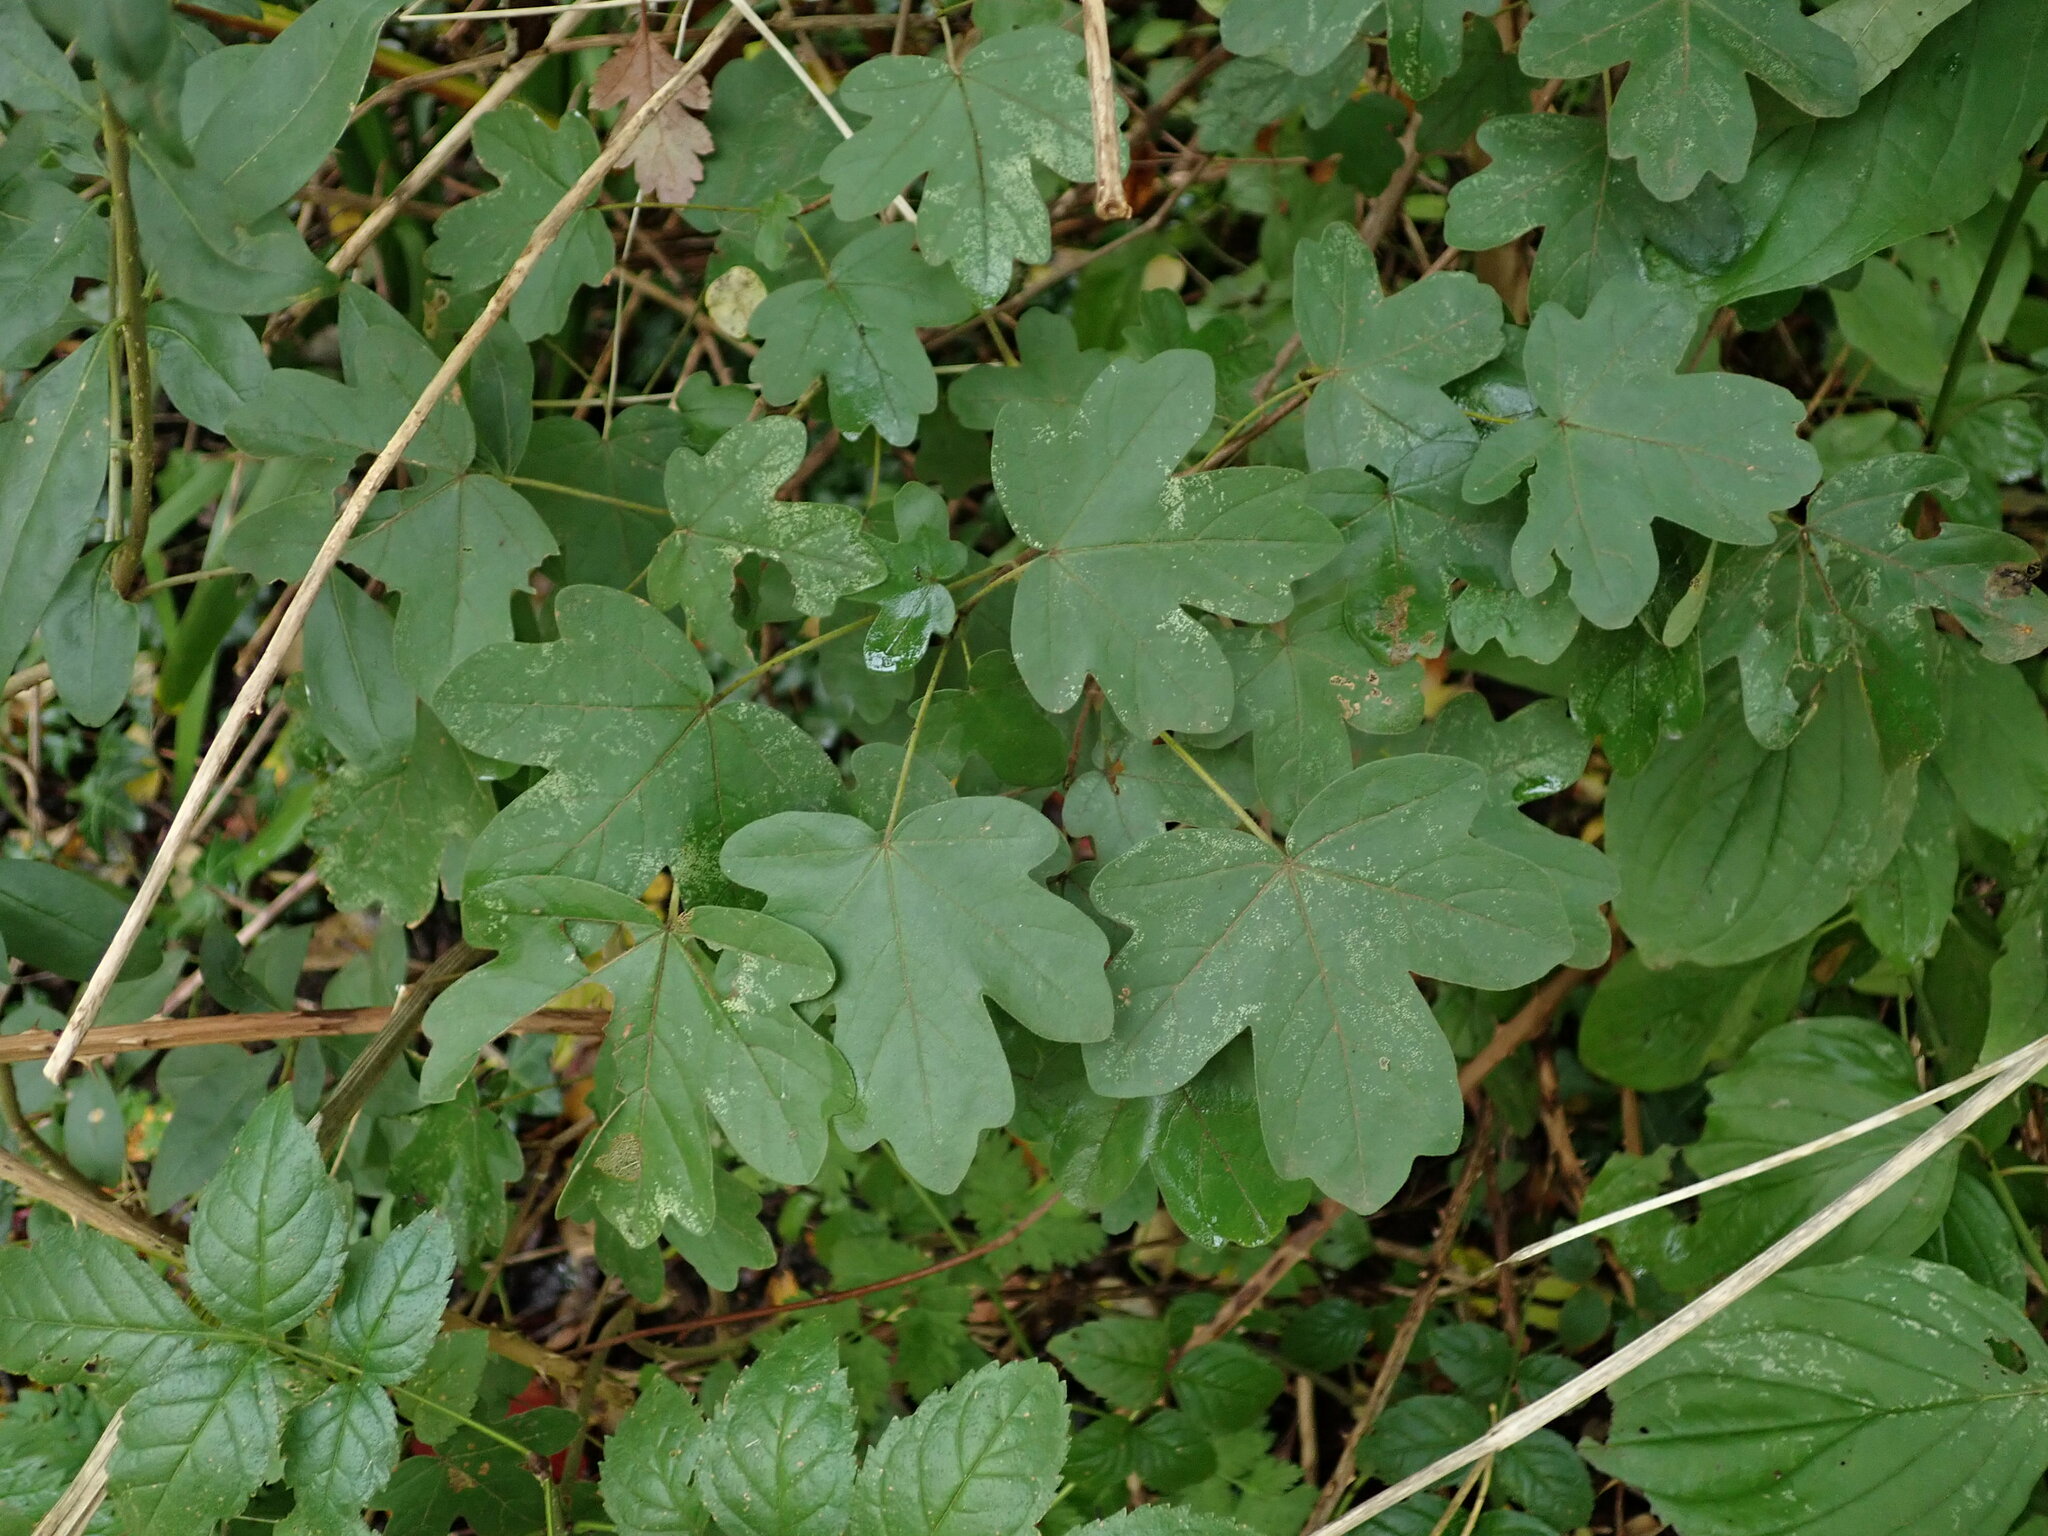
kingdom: Plantae
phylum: Tracheophyta
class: Magnoliopsida
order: Sapindales
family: Sapindaceae
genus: Acer
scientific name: Acer campestre
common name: Field maple
